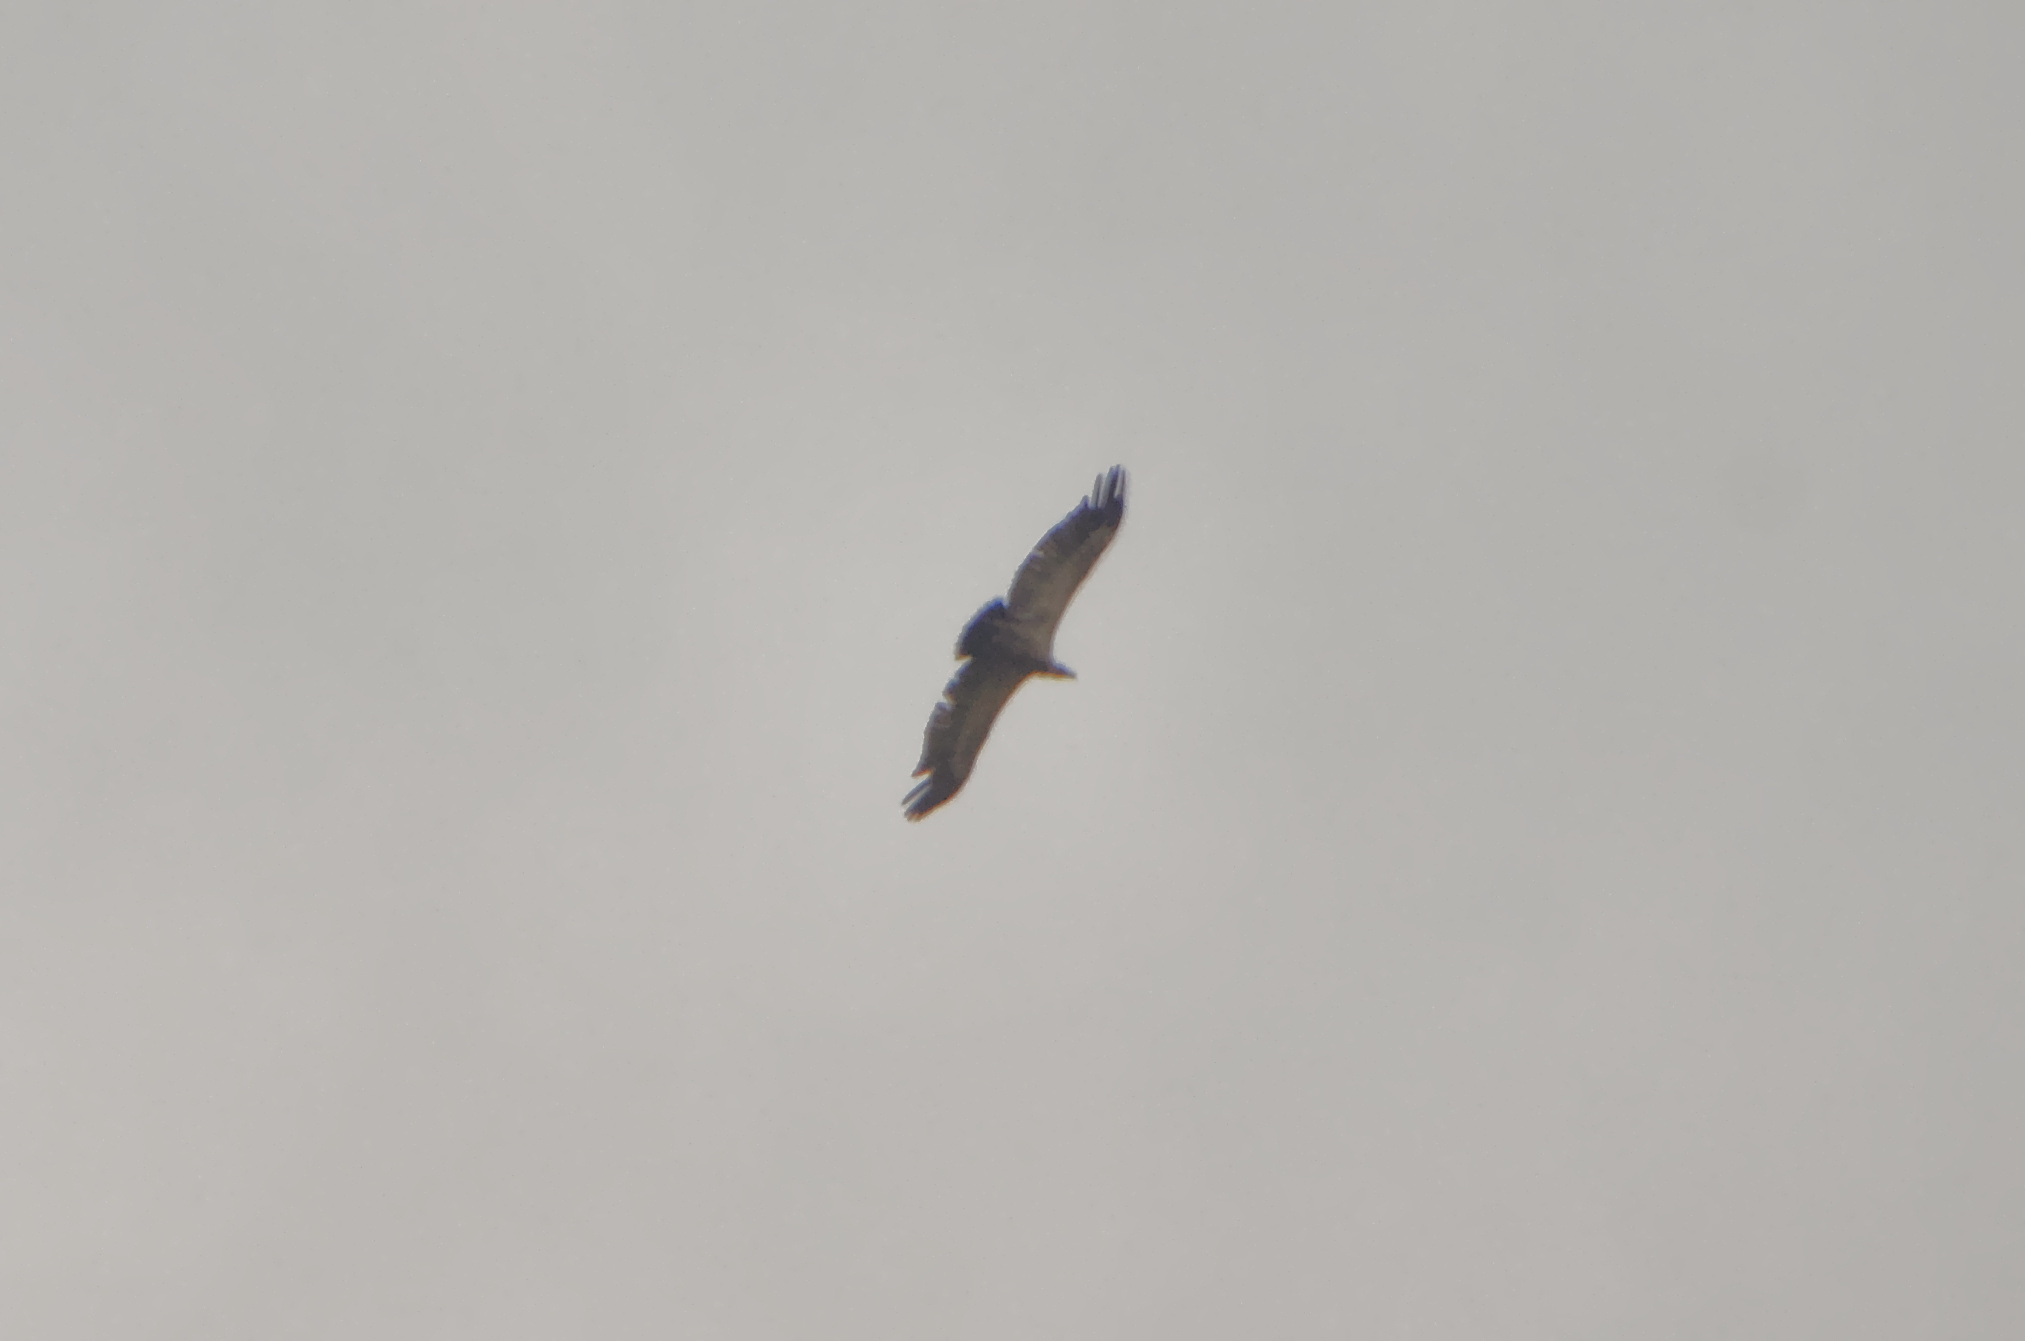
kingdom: Animalia
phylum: Chordata
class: Aves
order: Accipitriformes
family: Accipitridae
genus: Gyps
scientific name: Gyps coprotheres
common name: Cape vulture
